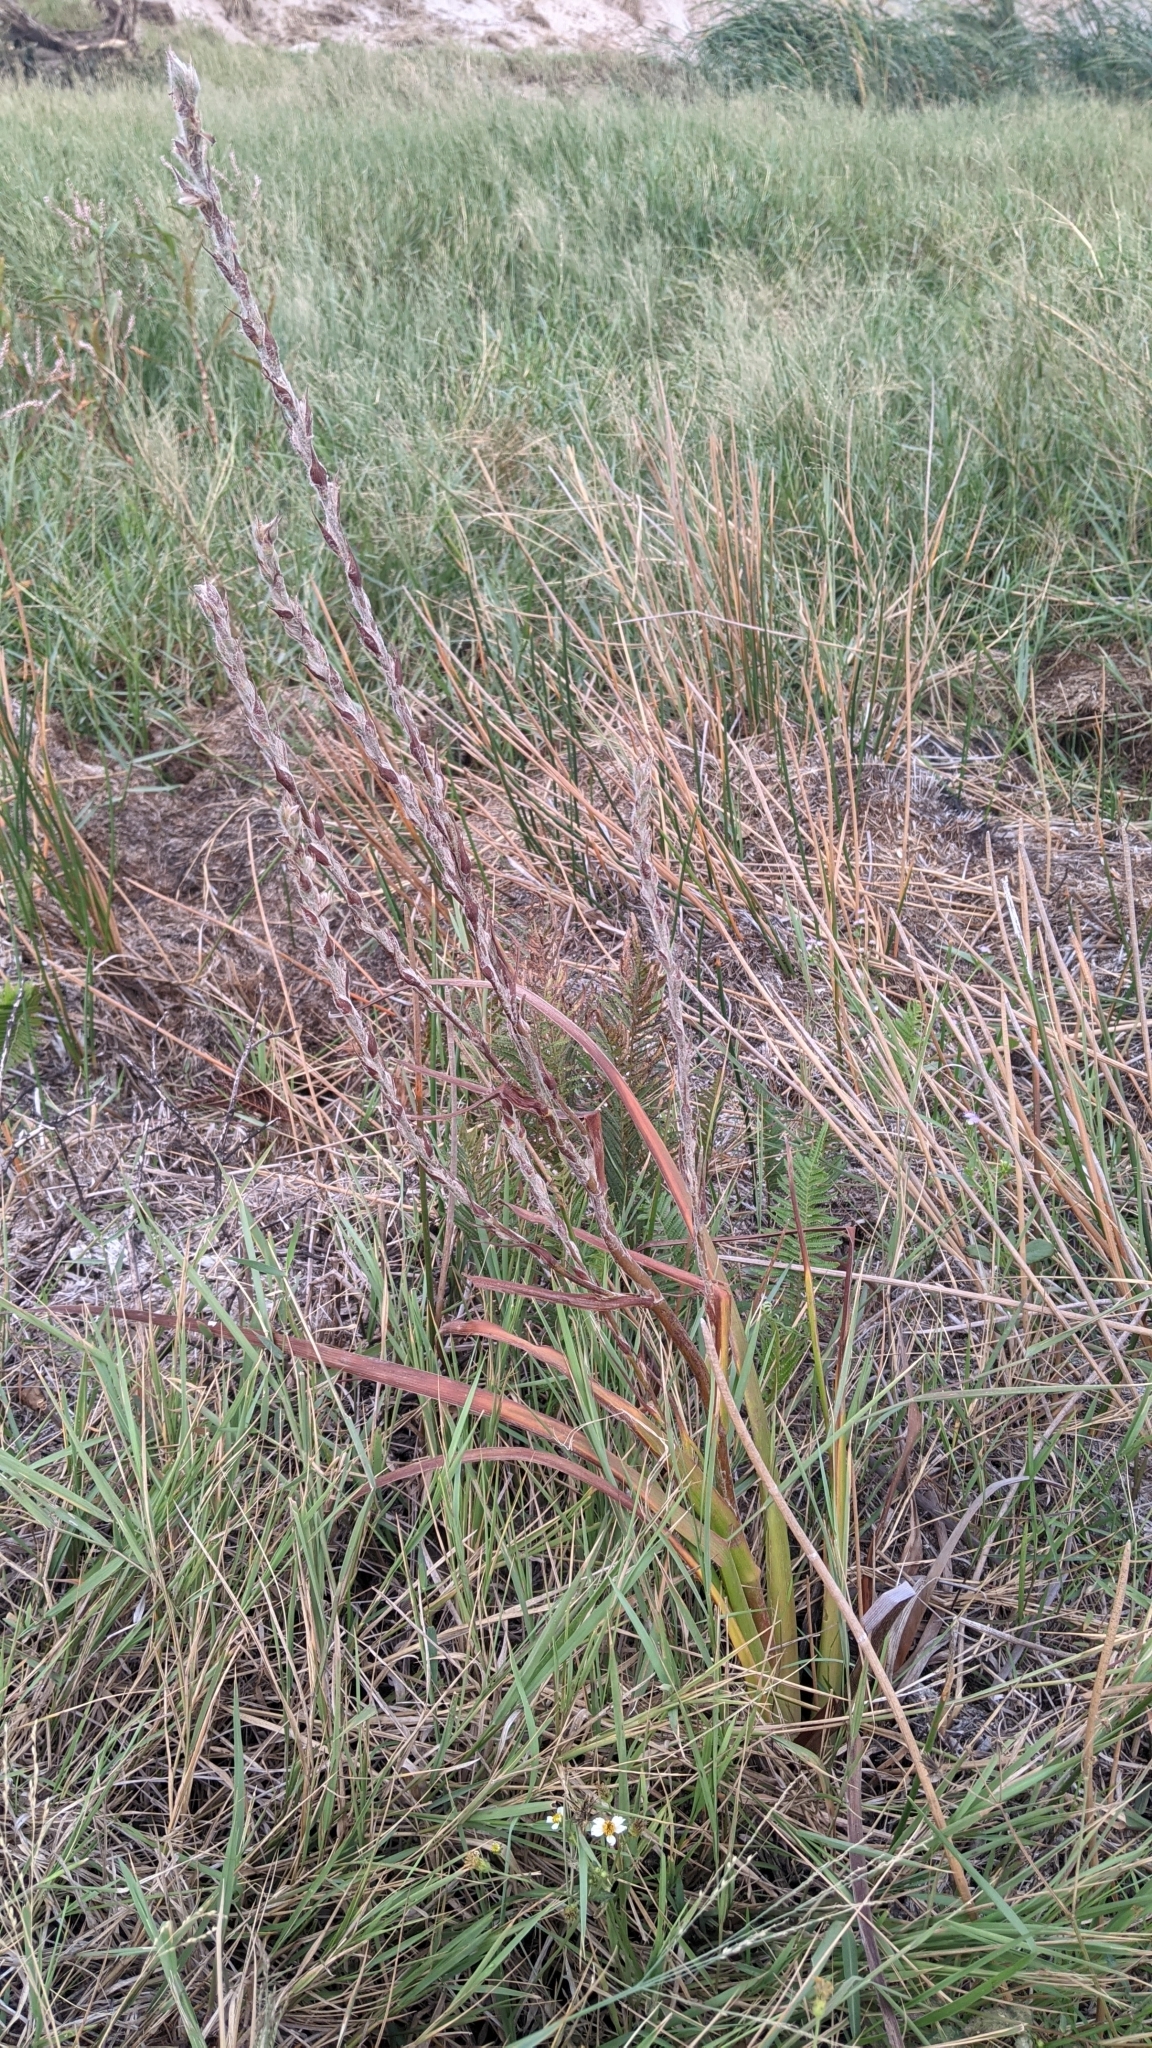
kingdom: Plantae
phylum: Tracheophyta
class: Liliopsida
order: Commelinales
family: Philydraceae
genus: Philydrum
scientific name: Philydrum lanuginosum
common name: Woolly frog's mouth
